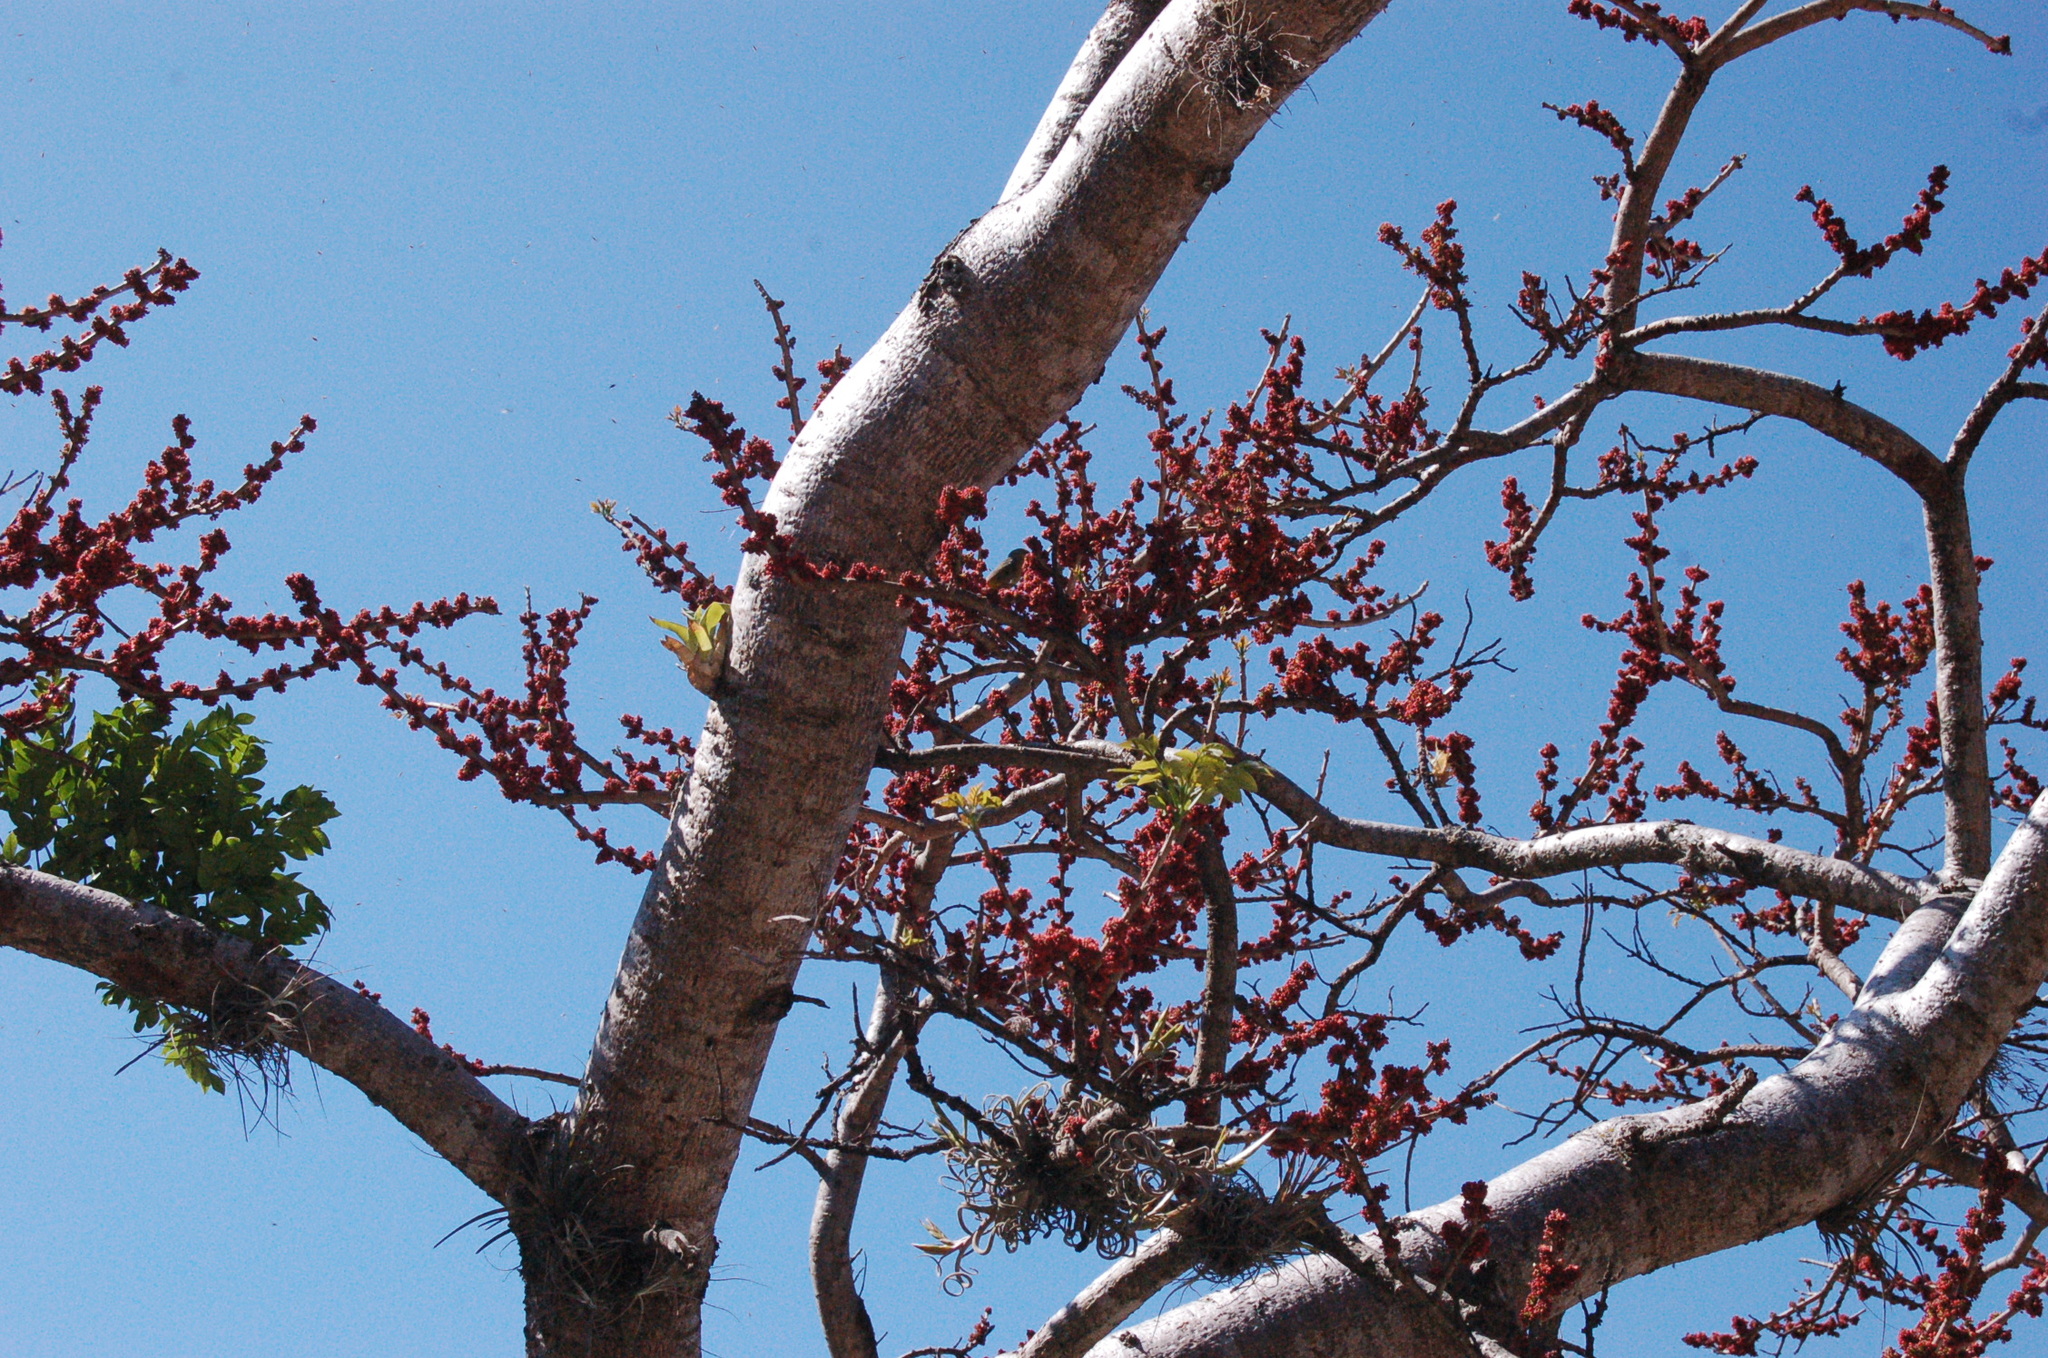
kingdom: Plantae
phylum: Tracheophyta
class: Magnoliopsida
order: Sapindales
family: Anacardiaceae
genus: Spondias
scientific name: Spondias purpurea
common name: Purple mombin
